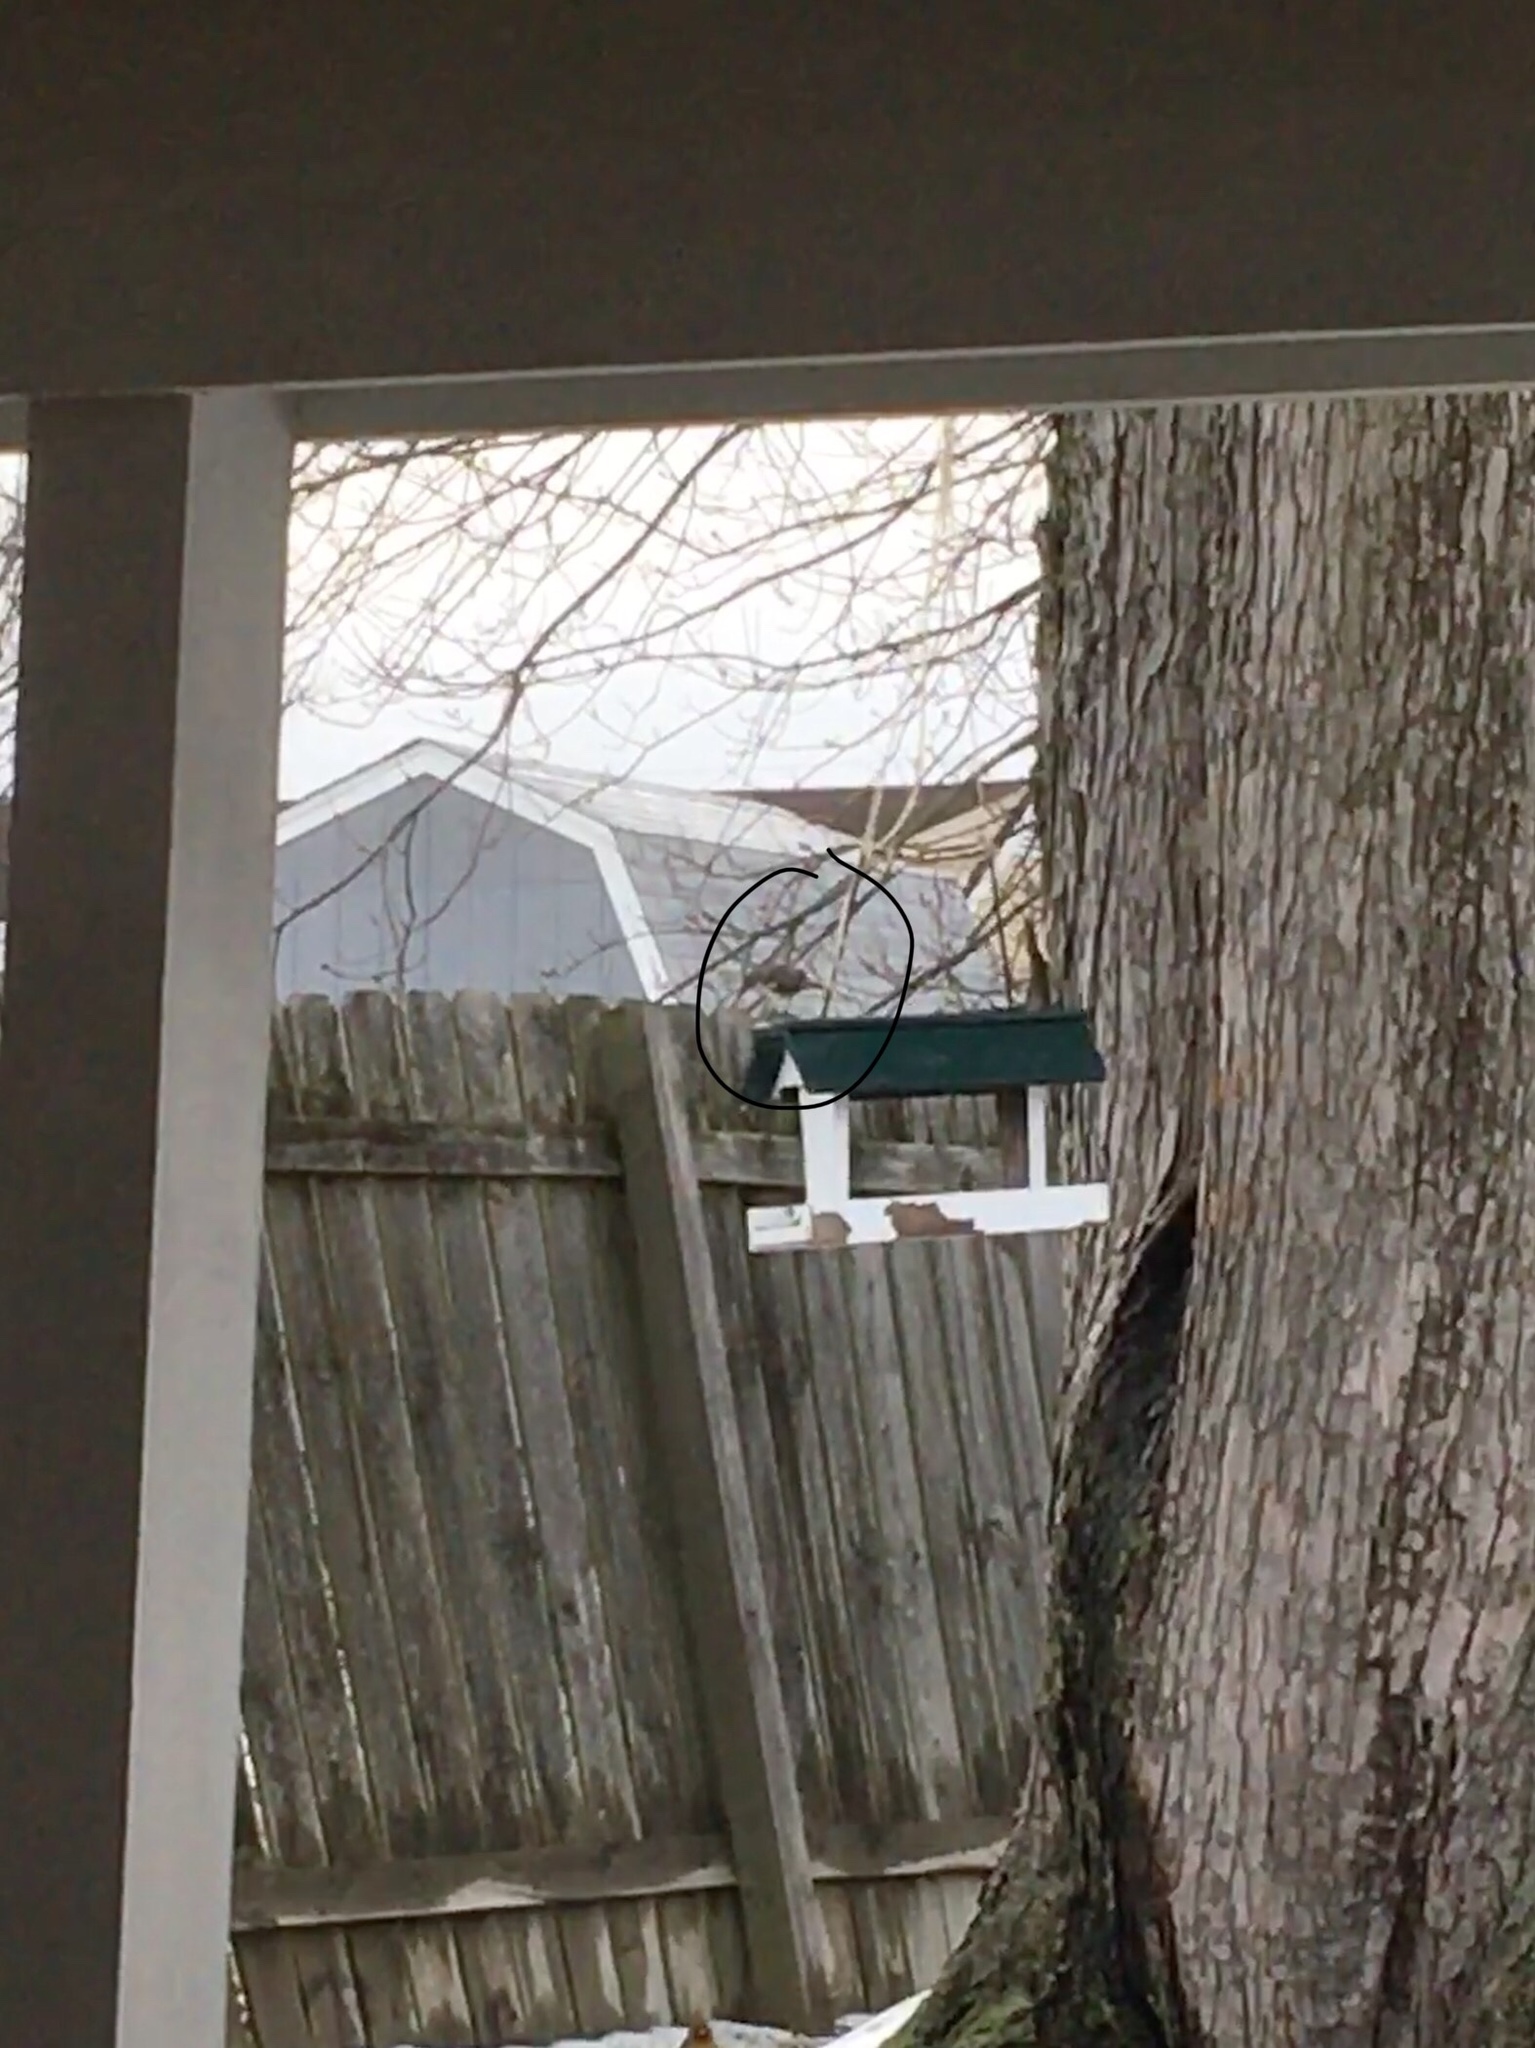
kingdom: Animalia
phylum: Chordata
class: Aves
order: Passeriformes
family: Mimidae
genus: Mimus
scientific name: Mimus polyglottos
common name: Northern mockingbird
